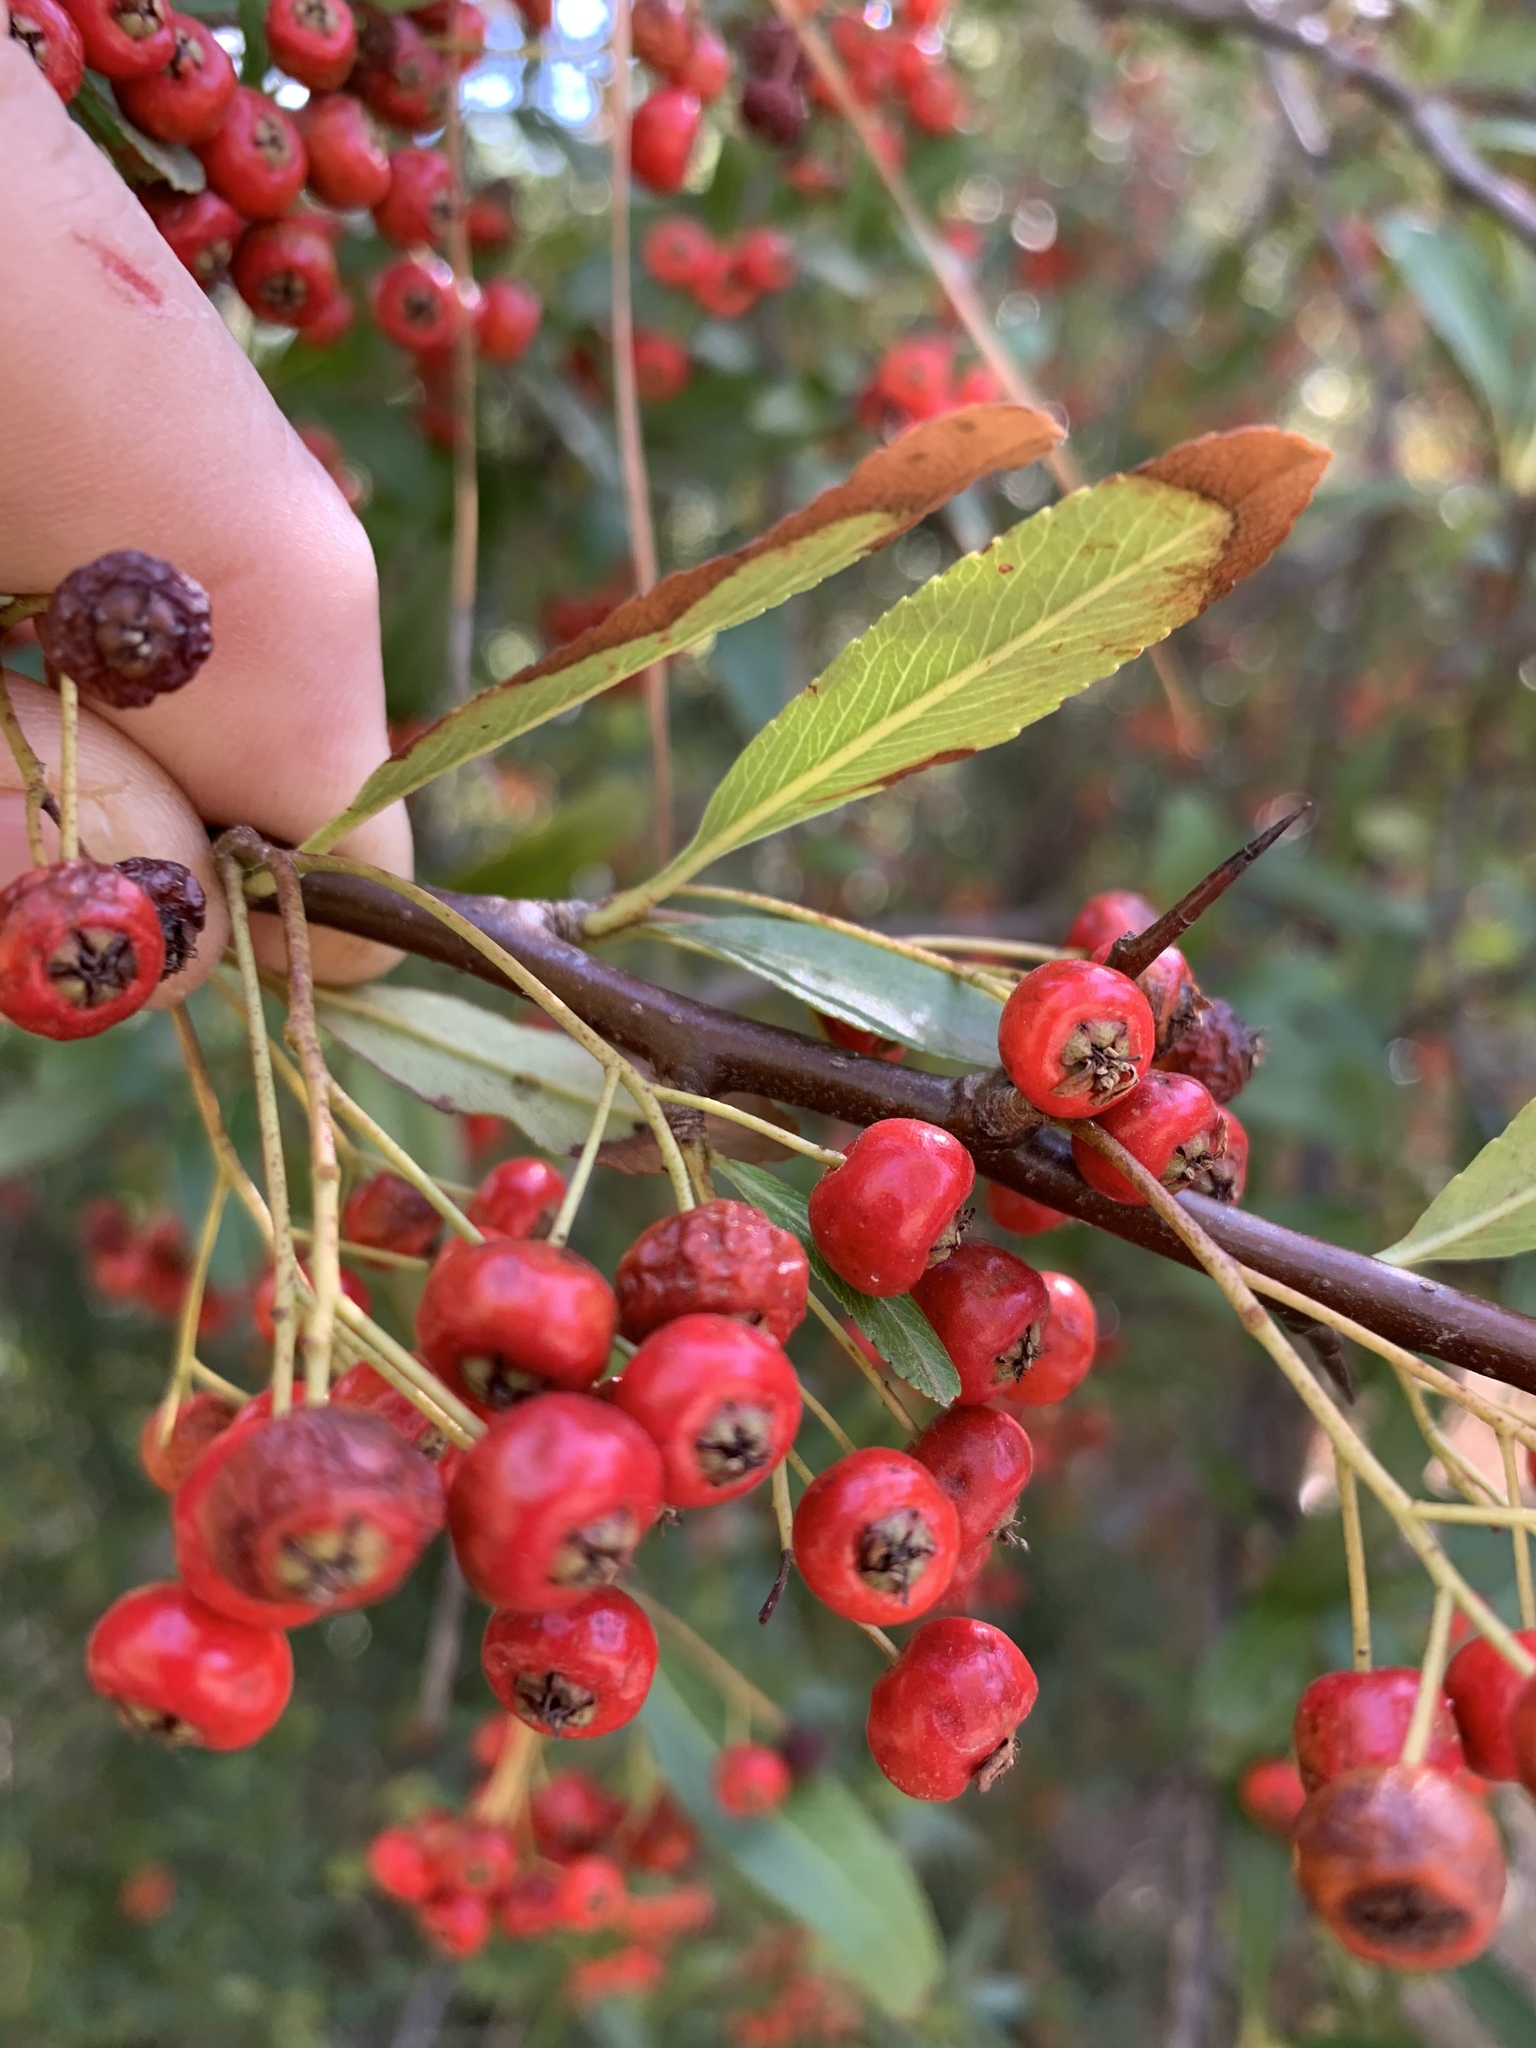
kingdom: Plantae
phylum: Tracheophyta
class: Magnoliopsida
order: Rosales
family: Rosaceae
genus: Pyracantha
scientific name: Pyracantha crenulata
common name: Nepalese firethorn
